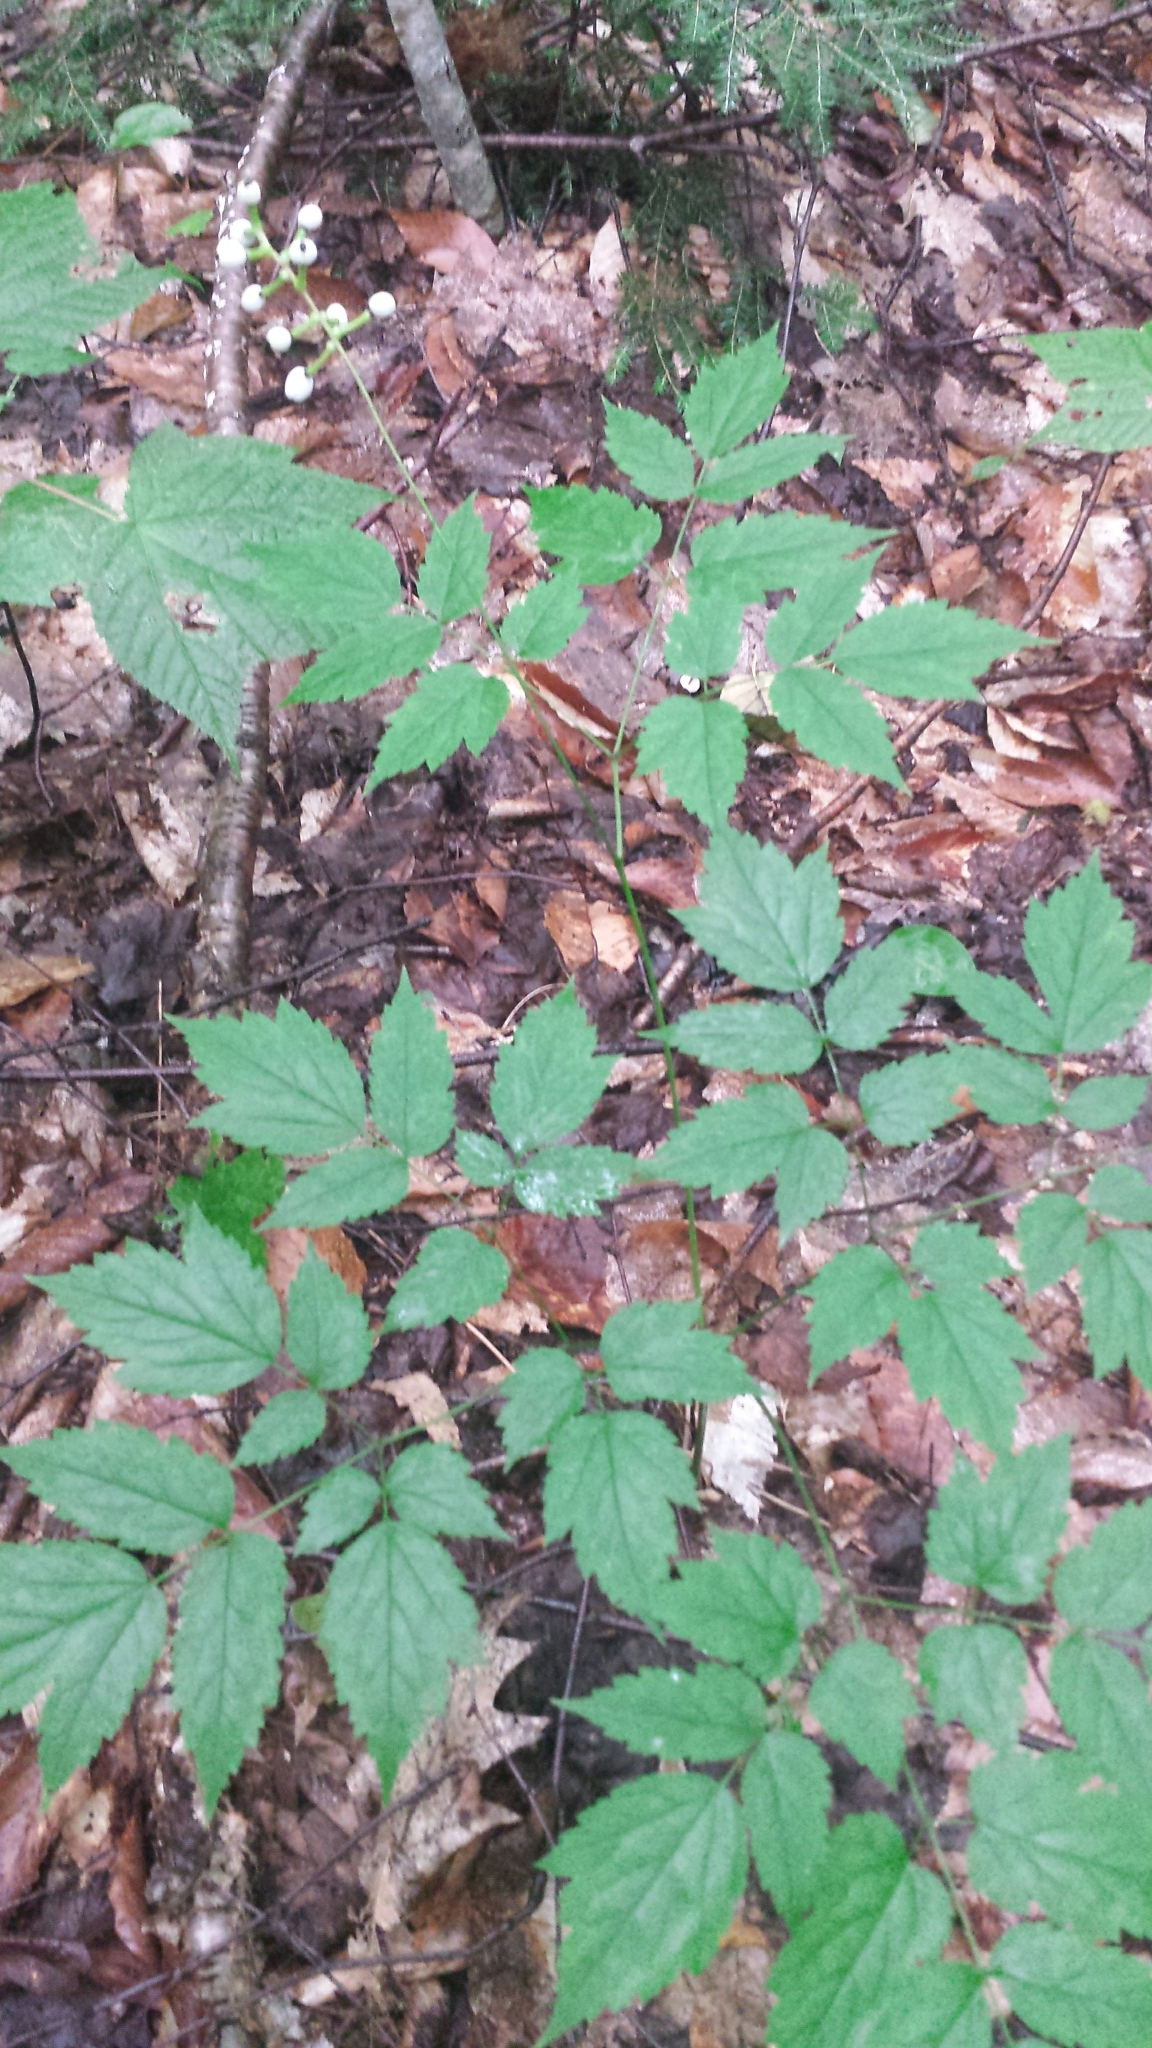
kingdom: Plantae
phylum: Tracheophyta
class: Magnoliopsida
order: Ranunculales
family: Ranunculaceae
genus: Actaea
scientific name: Actaea pachypoda
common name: Doll's-eyes
